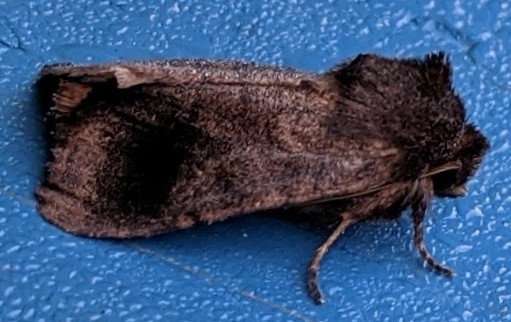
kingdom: Animalia
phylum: Arthropoda
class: Insecta
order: Lepidoptera
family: Noctuidae
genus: Nephelodes
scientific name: Nephelodes minians
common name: Bronzed cutworm
